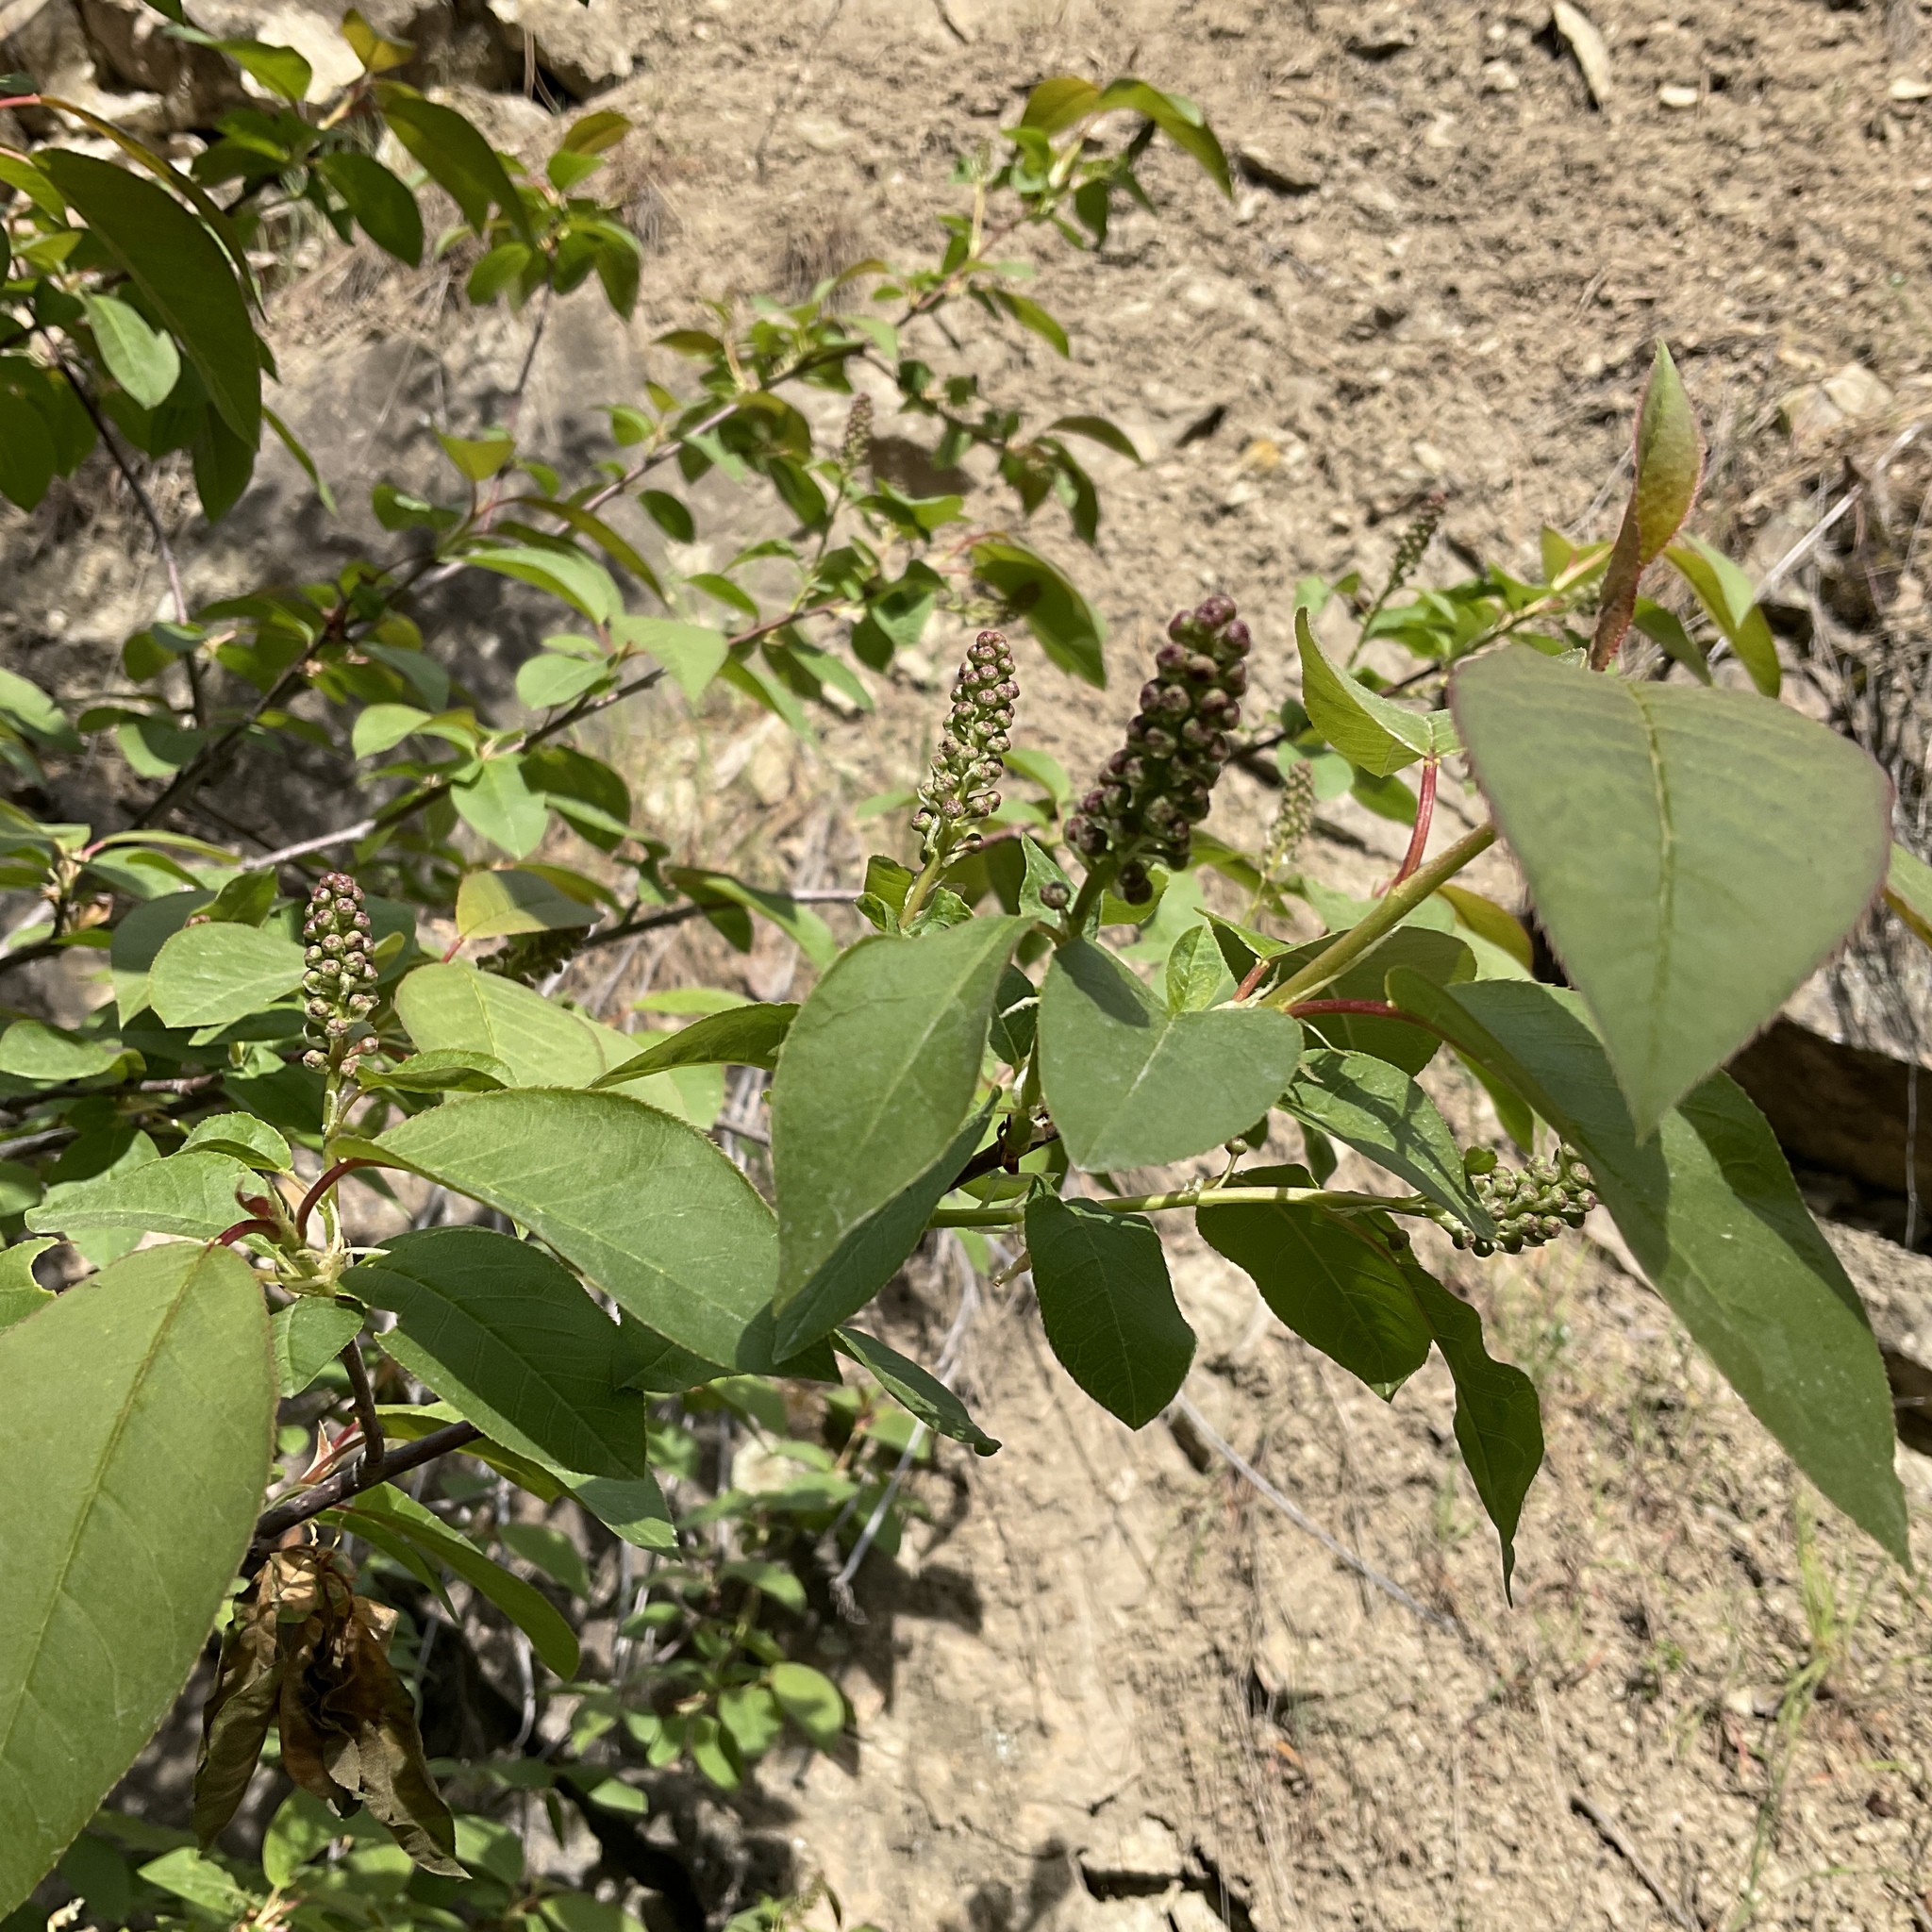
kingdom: Plantae
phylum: Tracheophyta
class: Magnoliopsida
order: Rosales
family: Rosaceae
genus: Prunus
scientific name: Prunus virginiana
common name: Chokecherry
